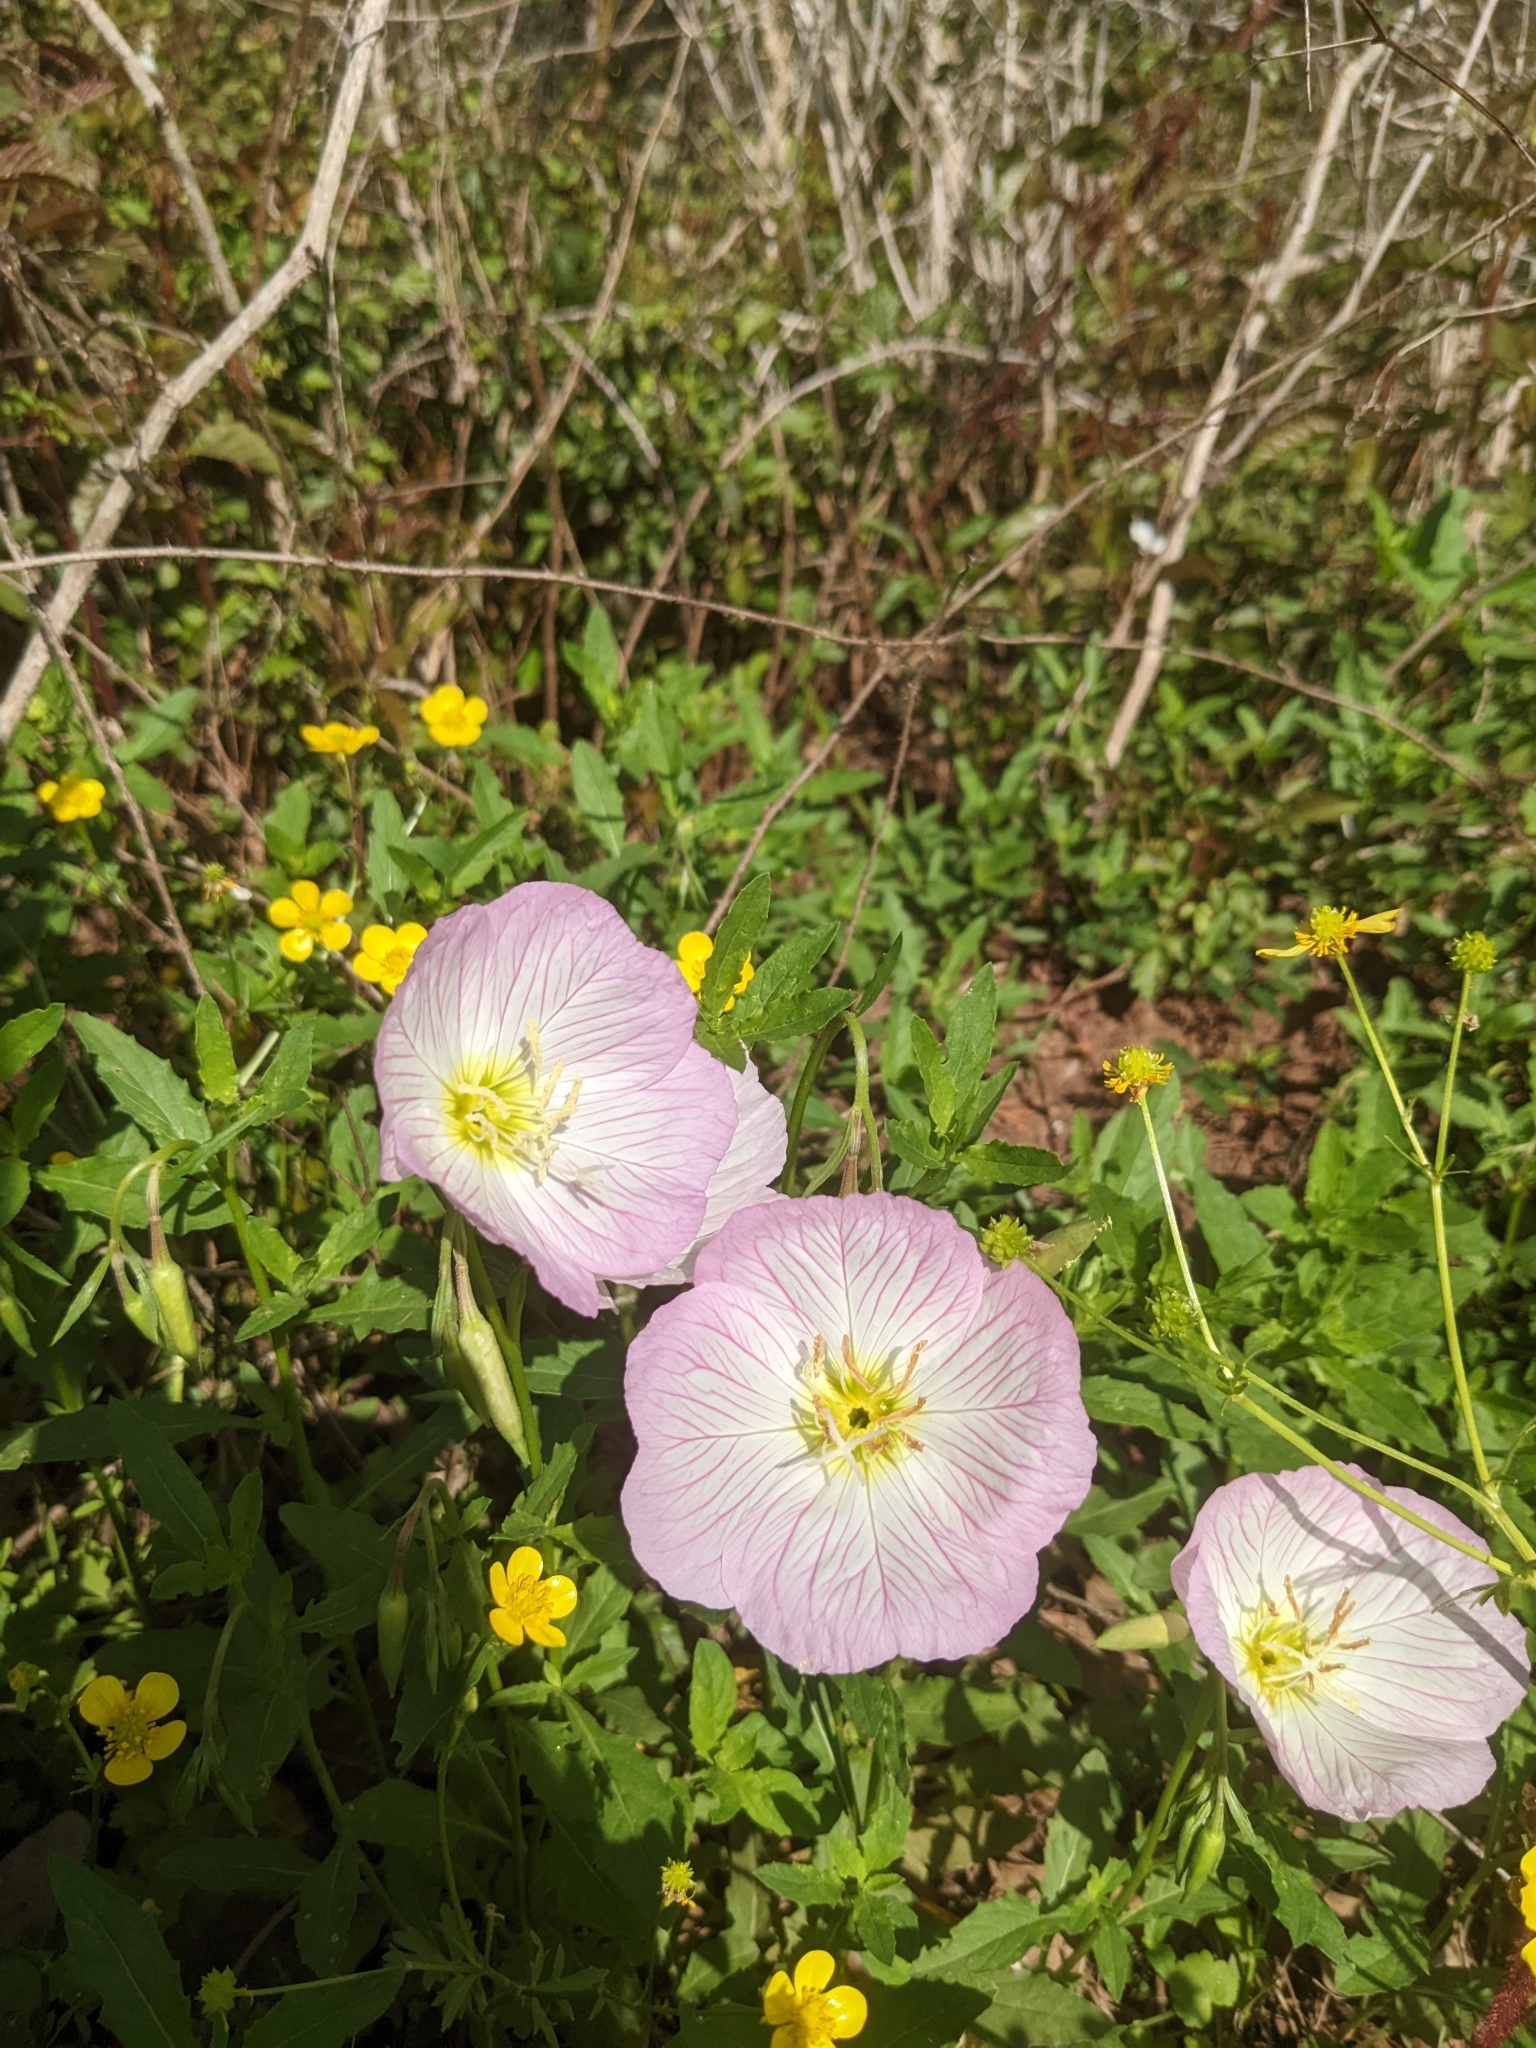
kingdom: Plantae
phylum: Tracheophyta
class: Magnoliopsida
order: Myrtales
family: Onagraceae
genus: Oenothera
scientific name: Oenothera speciosa
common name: White evening-primrose
